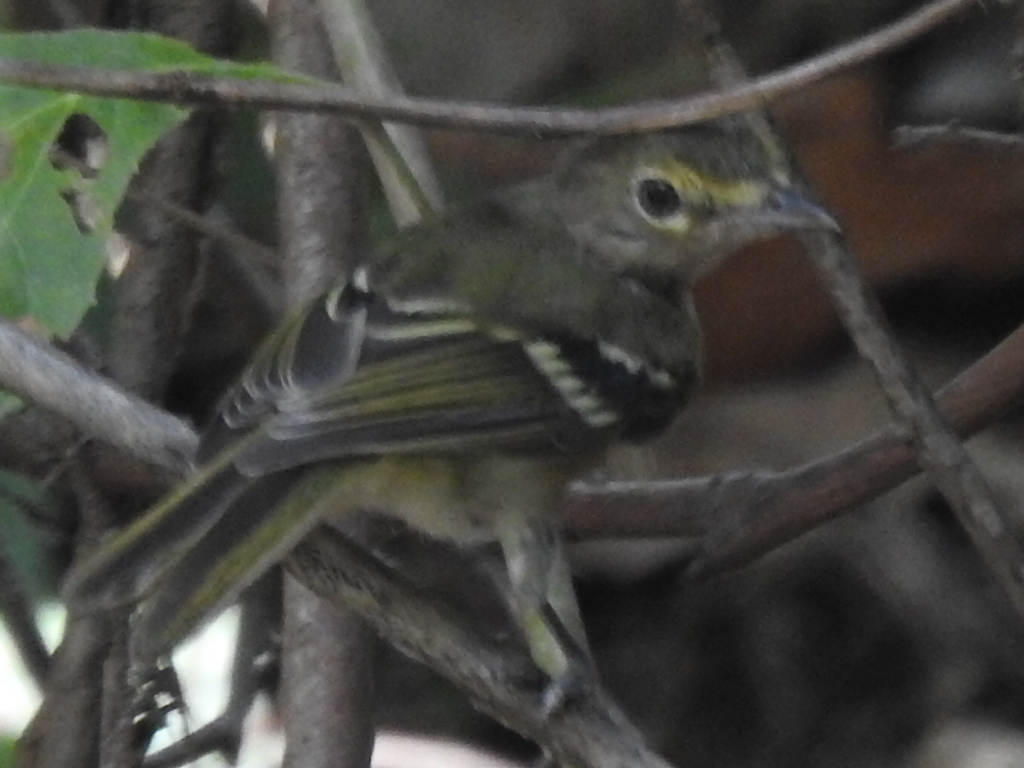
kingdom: Animalia
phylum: Chordata
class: Aves
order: Passeriformes
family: Vireonidae
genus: Vireo
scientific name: Vireo griseus
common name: White-eyed vireo
